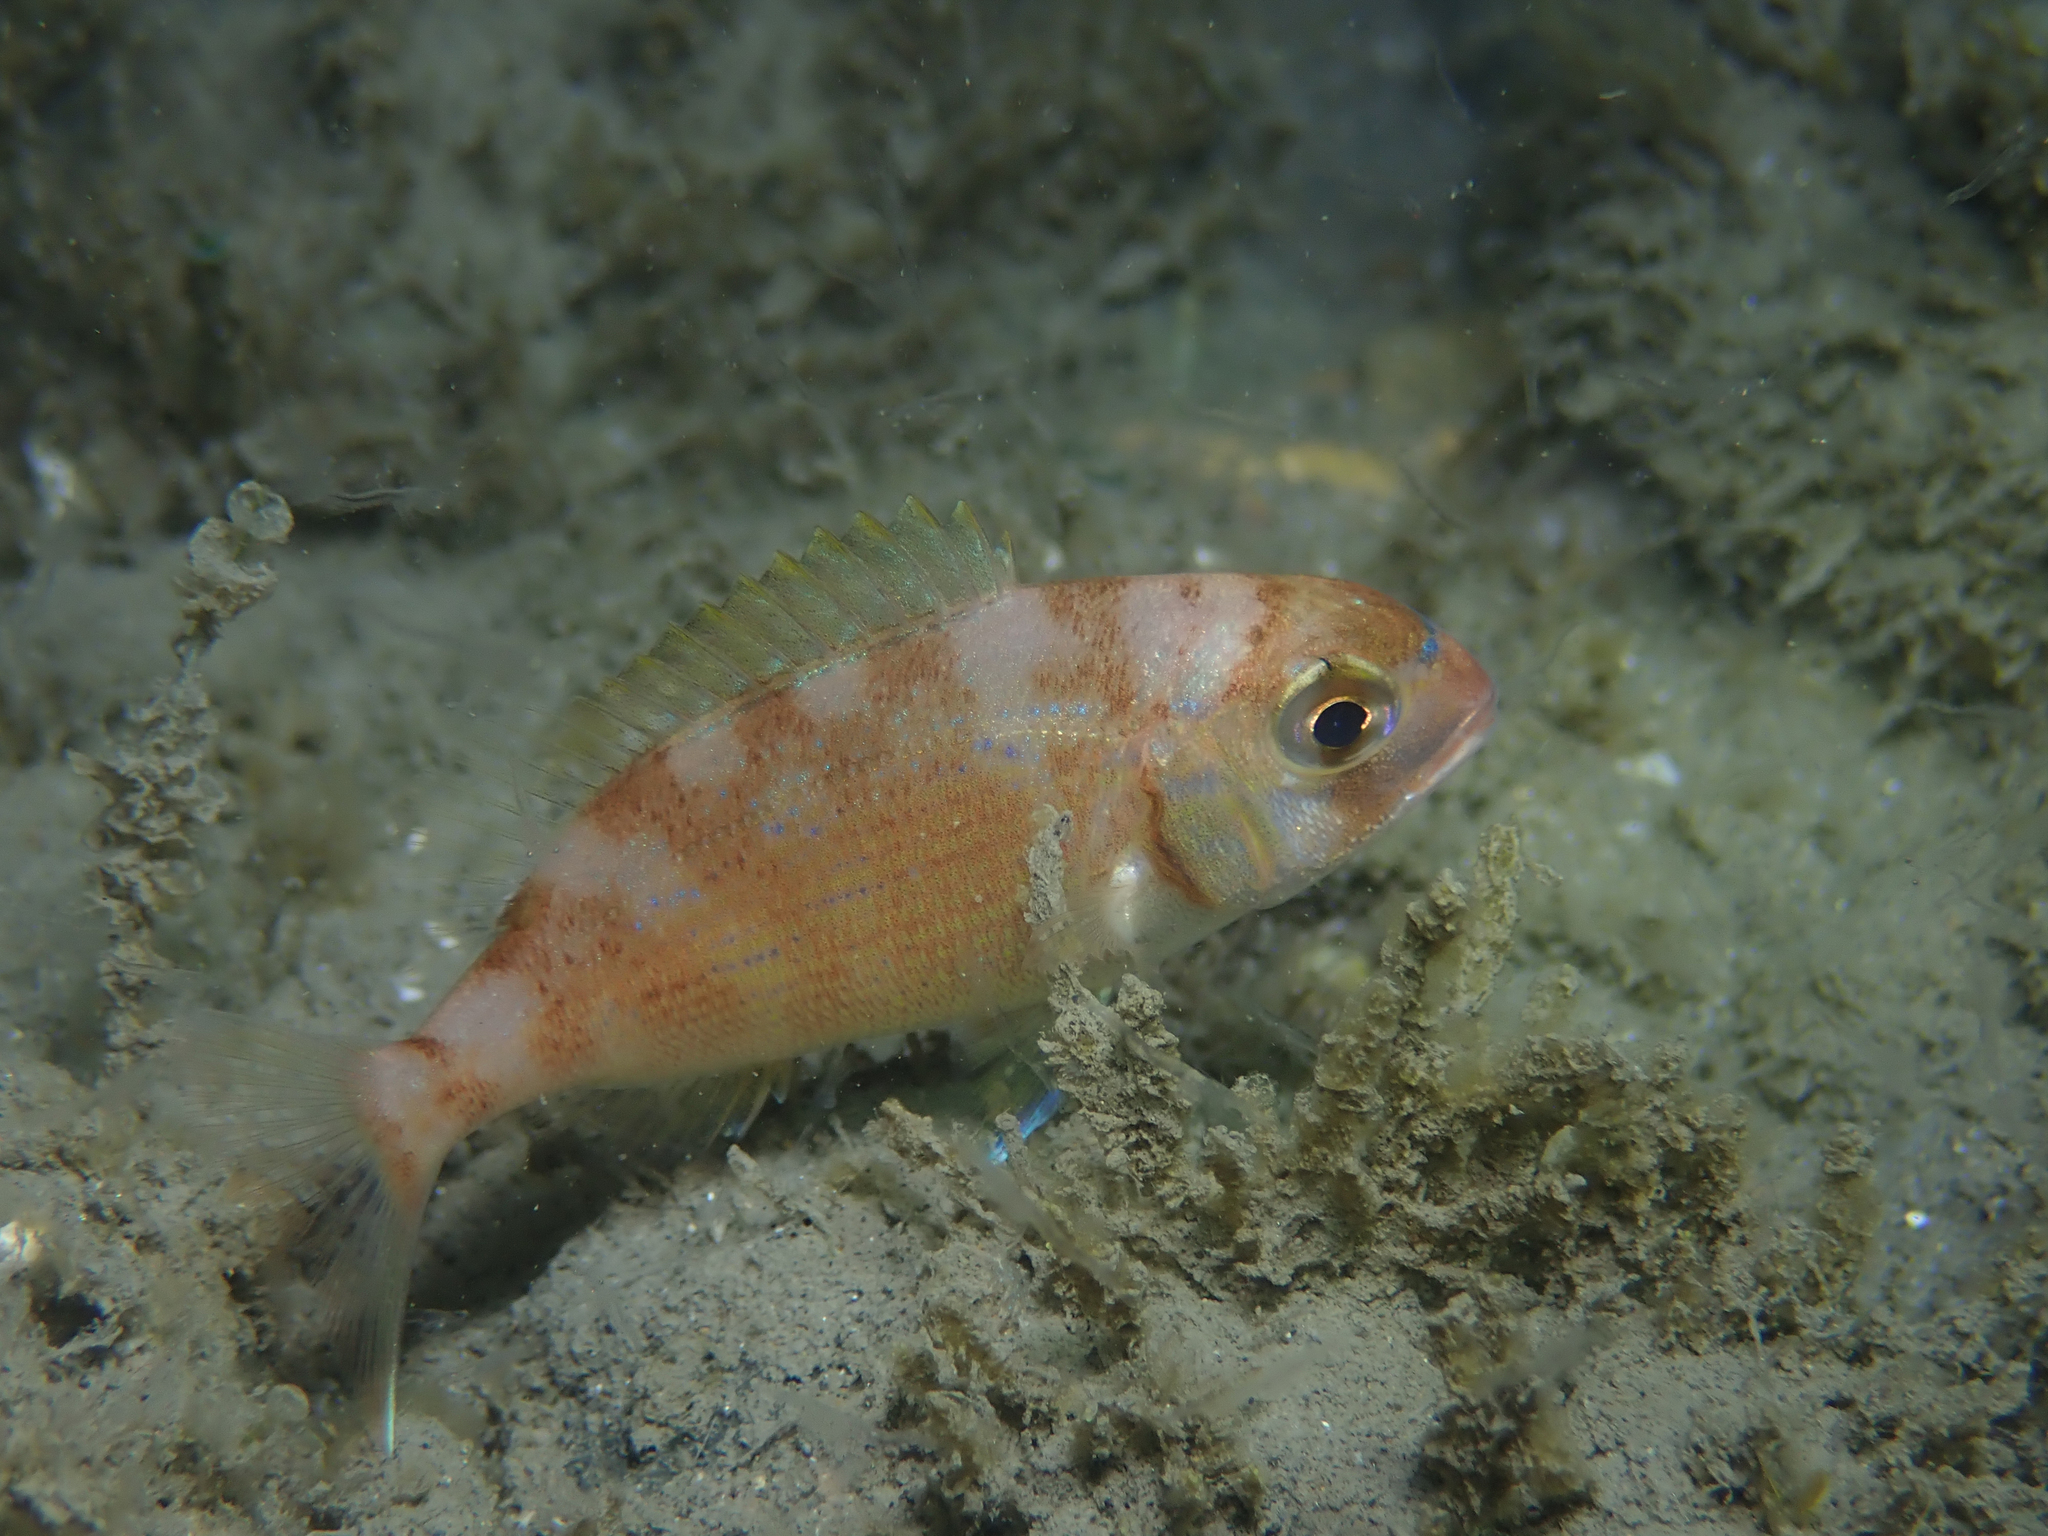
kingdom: Animalia
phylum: Chordata
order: Perciformes
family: Sparidae
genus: Pagrus
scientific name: Pagrus pagrus
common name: Red porgy
